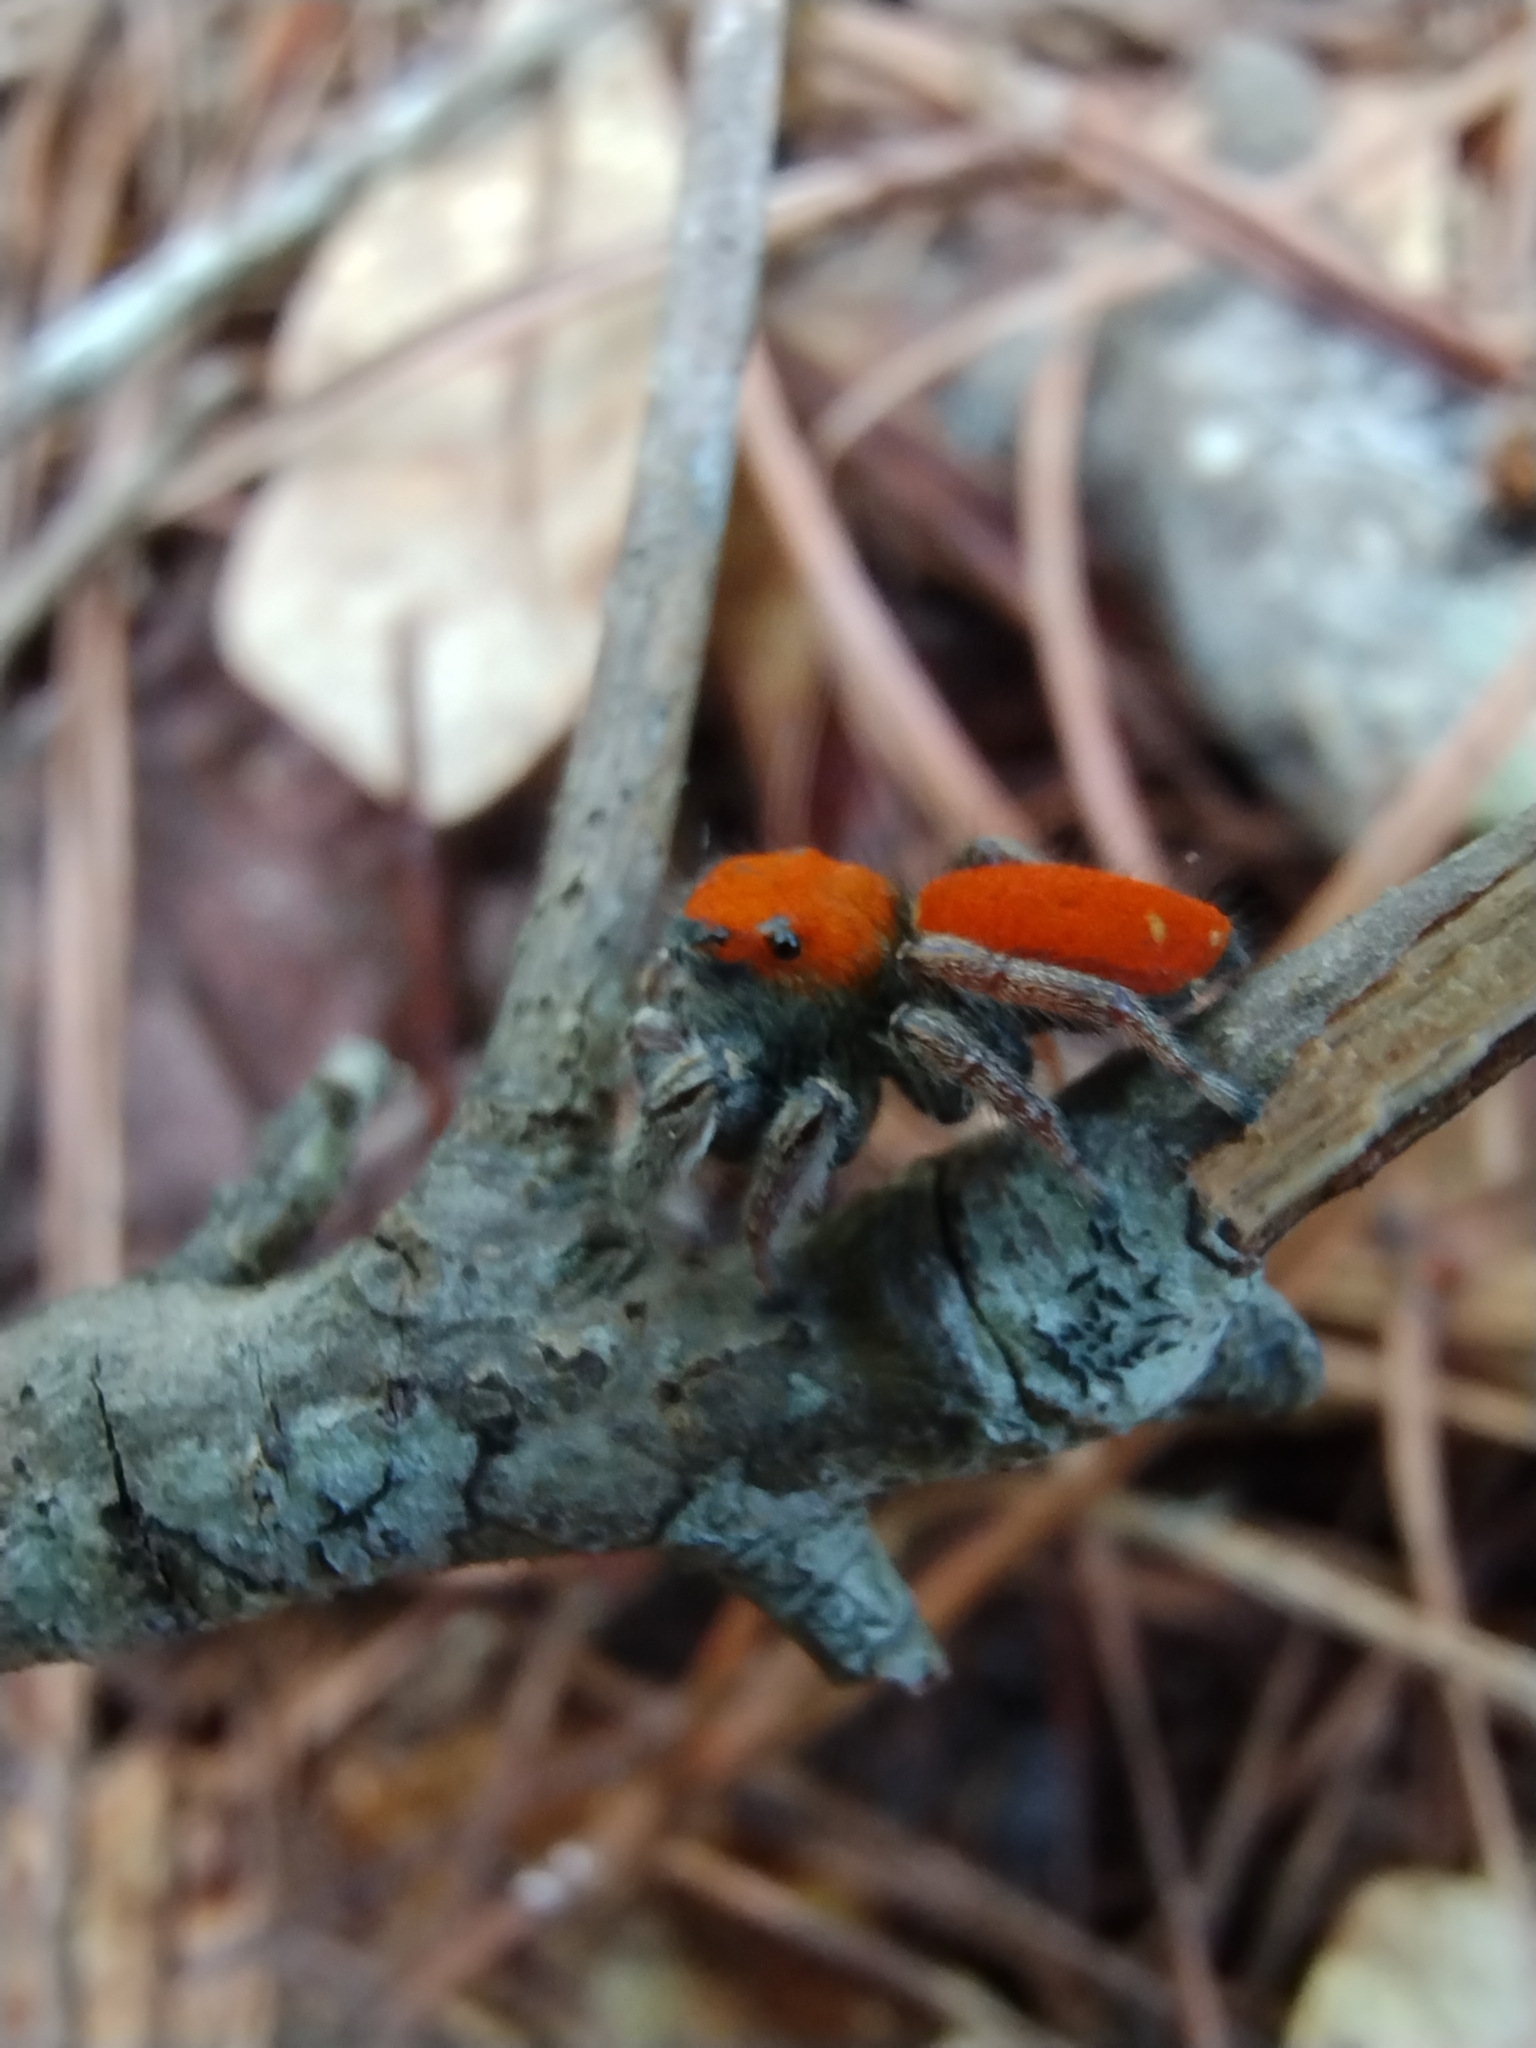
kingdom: Animalia
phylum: Arthropoda
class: Arachnida
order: Araneae
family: Salticidae
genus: Phidippus
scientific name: Phidippus whitmani
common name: Whitman's jumping spider
